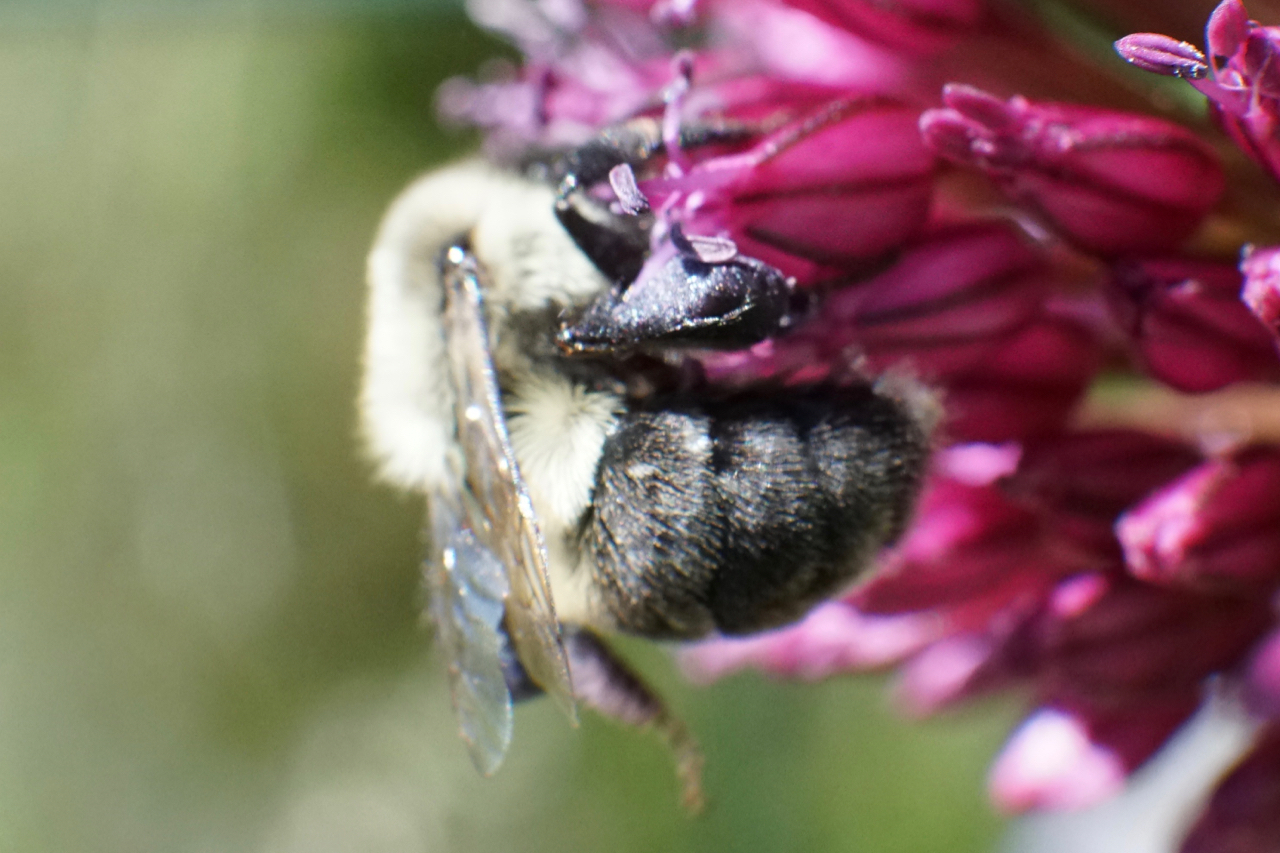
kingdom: Animalia
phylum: Arthropoda
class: Insecta
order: Hymenoptera
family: Apidae
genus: Bombus
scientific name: Bombus impatiens
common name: Common eastern bumble bee
